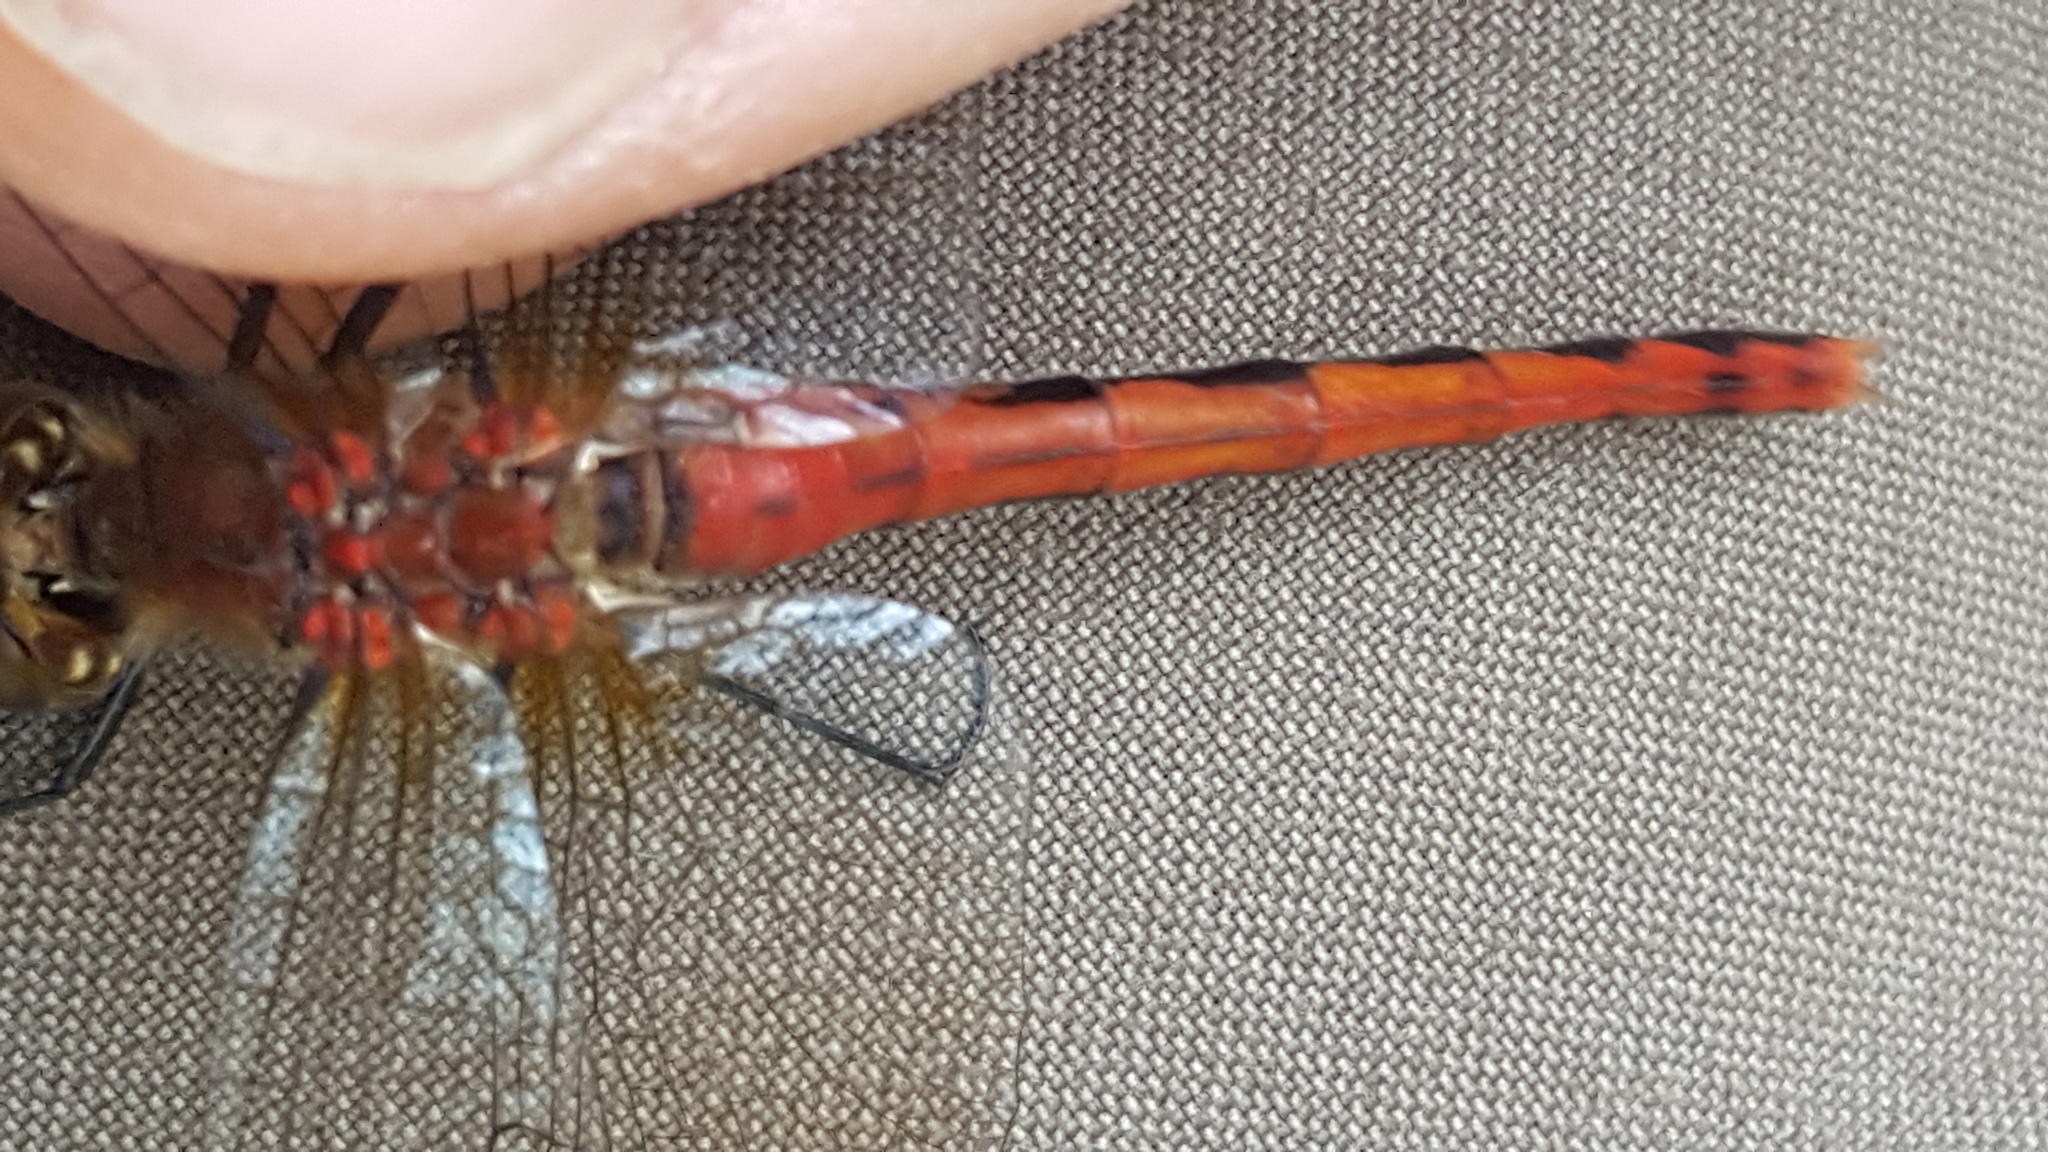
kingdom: Animalia
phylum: Arthropoda
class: Insecta
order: Odonata
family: Libellulidae
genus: Sympetrum
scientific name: Sympetrum obtrusum
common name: White-faced meadowhawk
